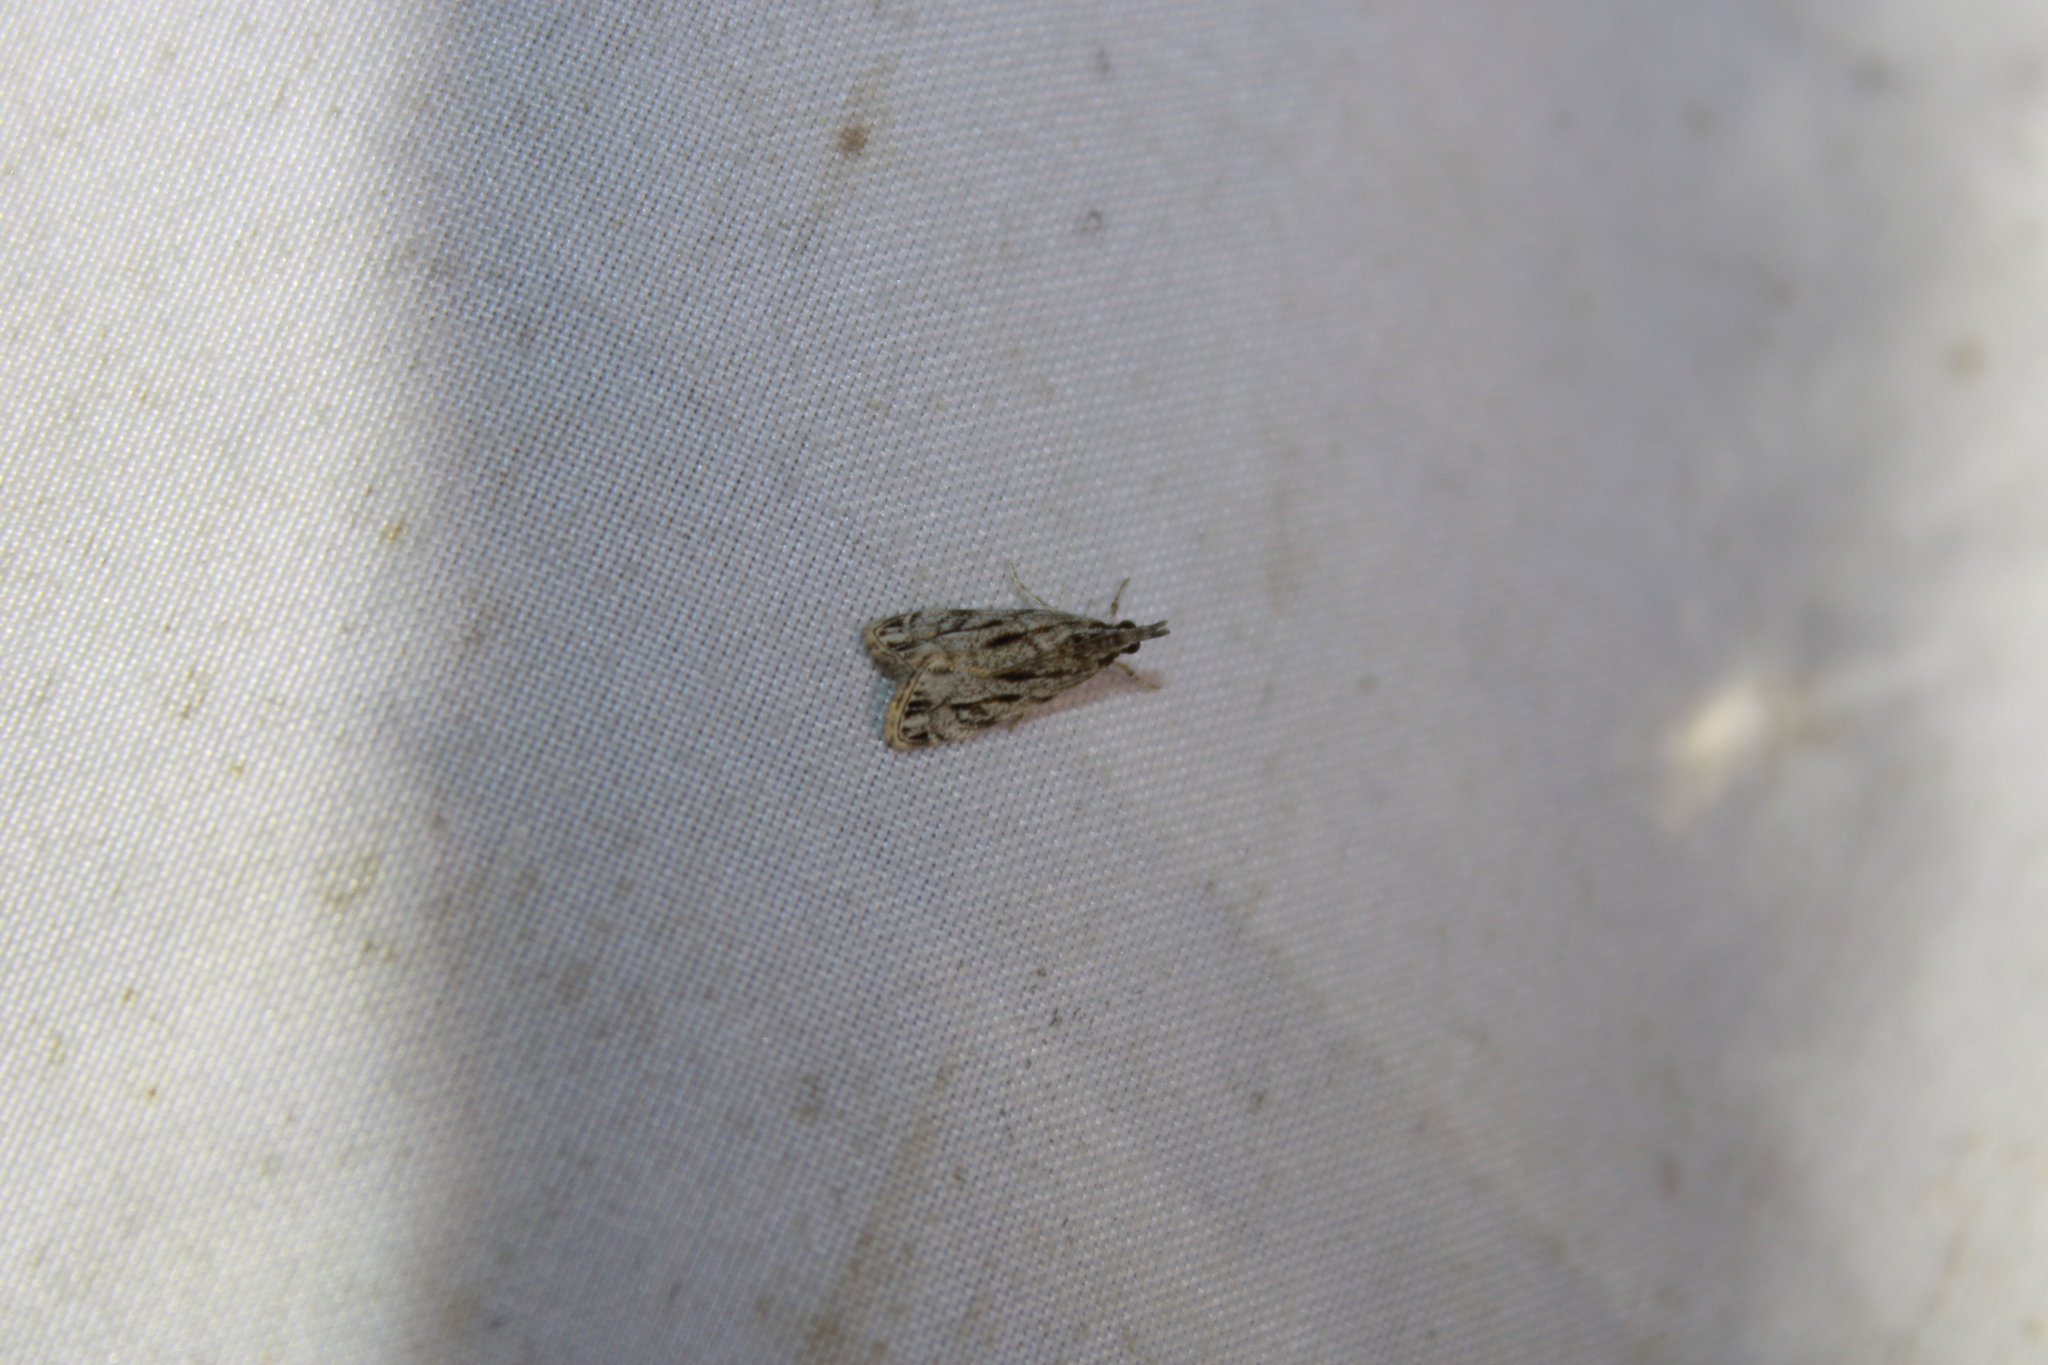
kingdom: Animalia
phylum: Arthropoda
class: Insecta
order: Lepidoptera
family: Crambidae
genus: Eudonia
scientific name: Eudonia strigalis
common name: Striped eudonia moth
